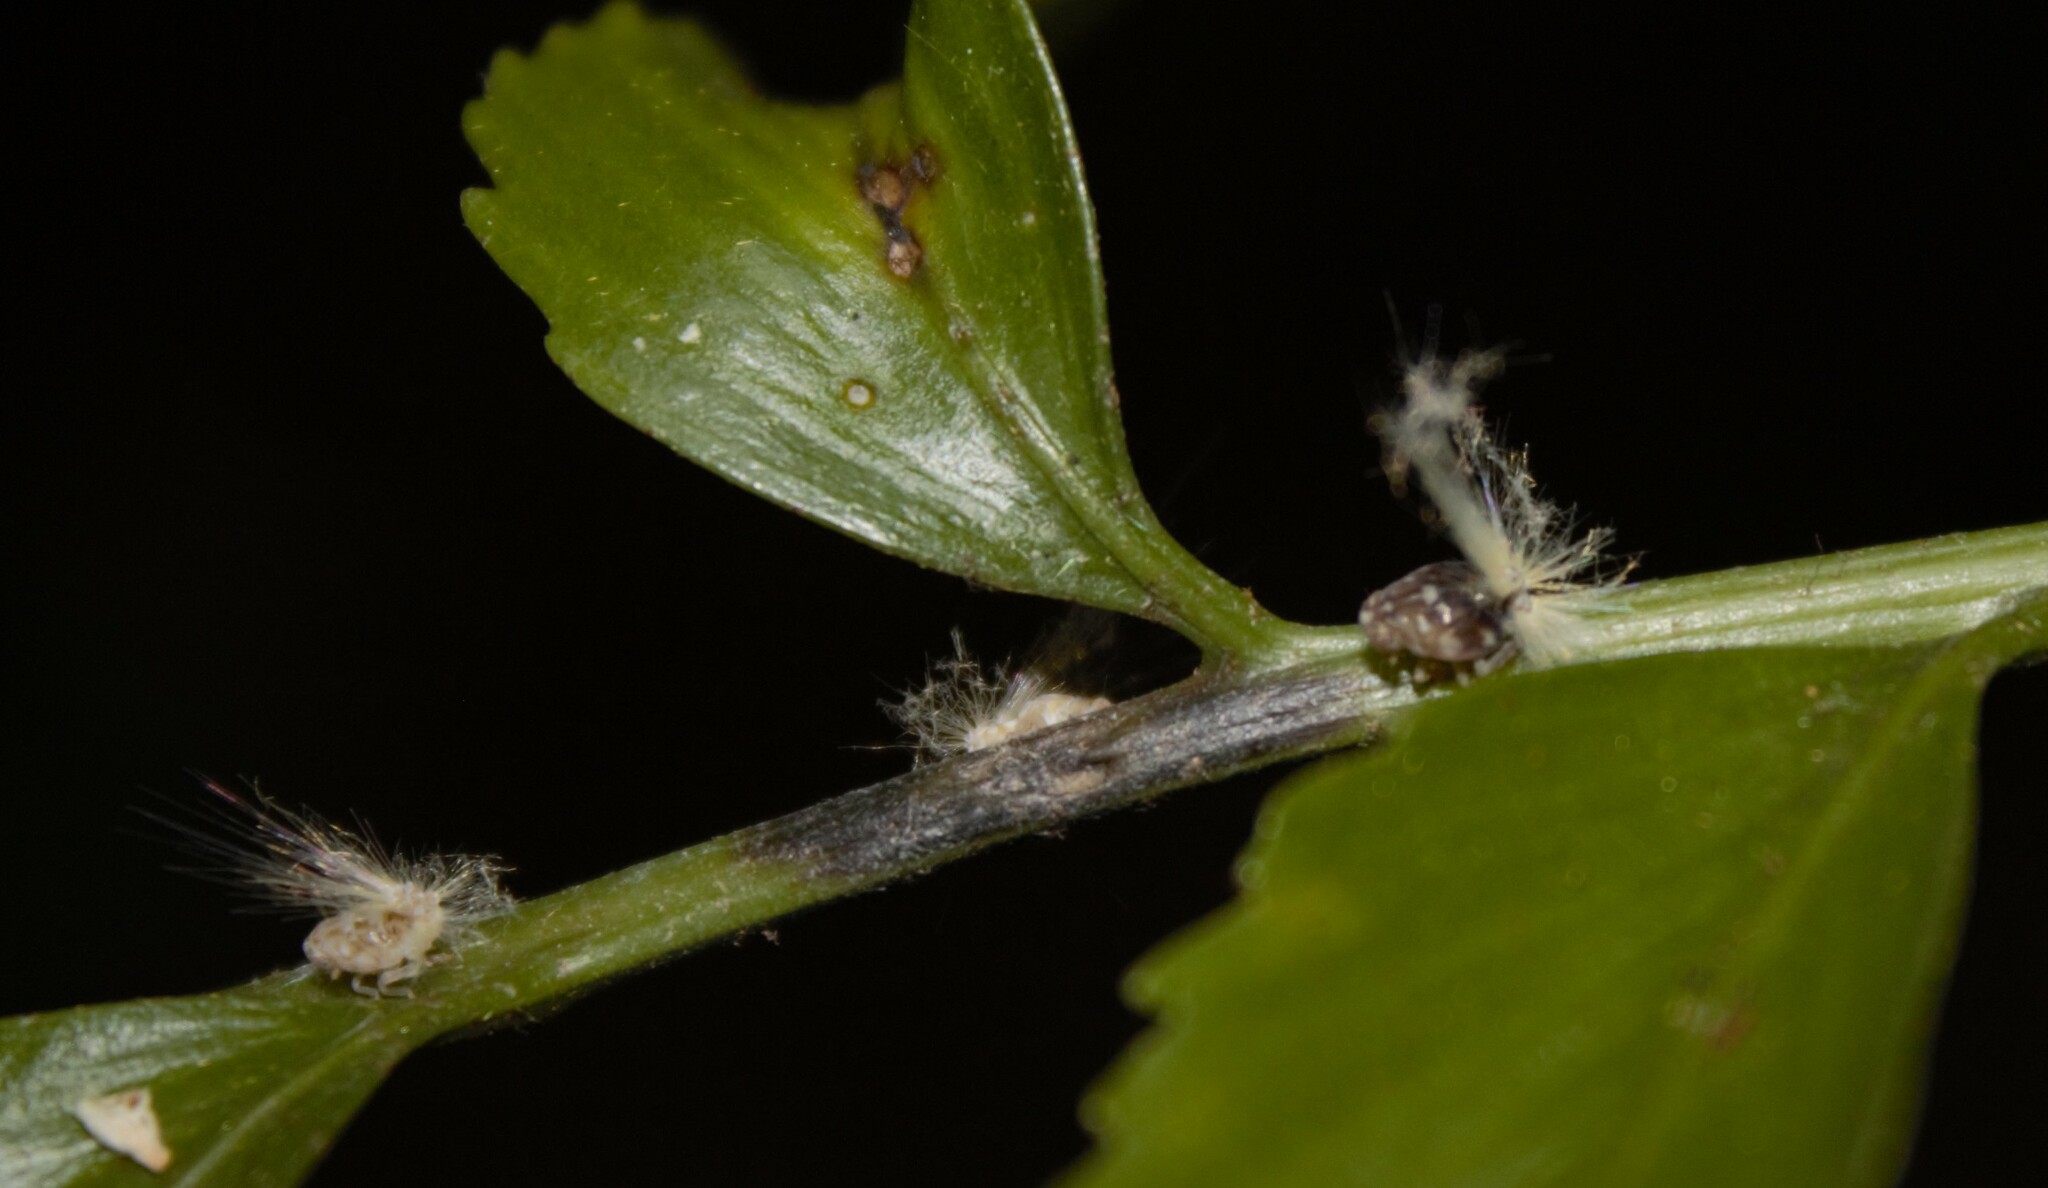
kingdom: Animalia
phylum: Arthropoda
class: Insecta
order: Hemiptera
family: Ricaniidae
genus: Scolypopa
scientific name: Scolypopa australis
